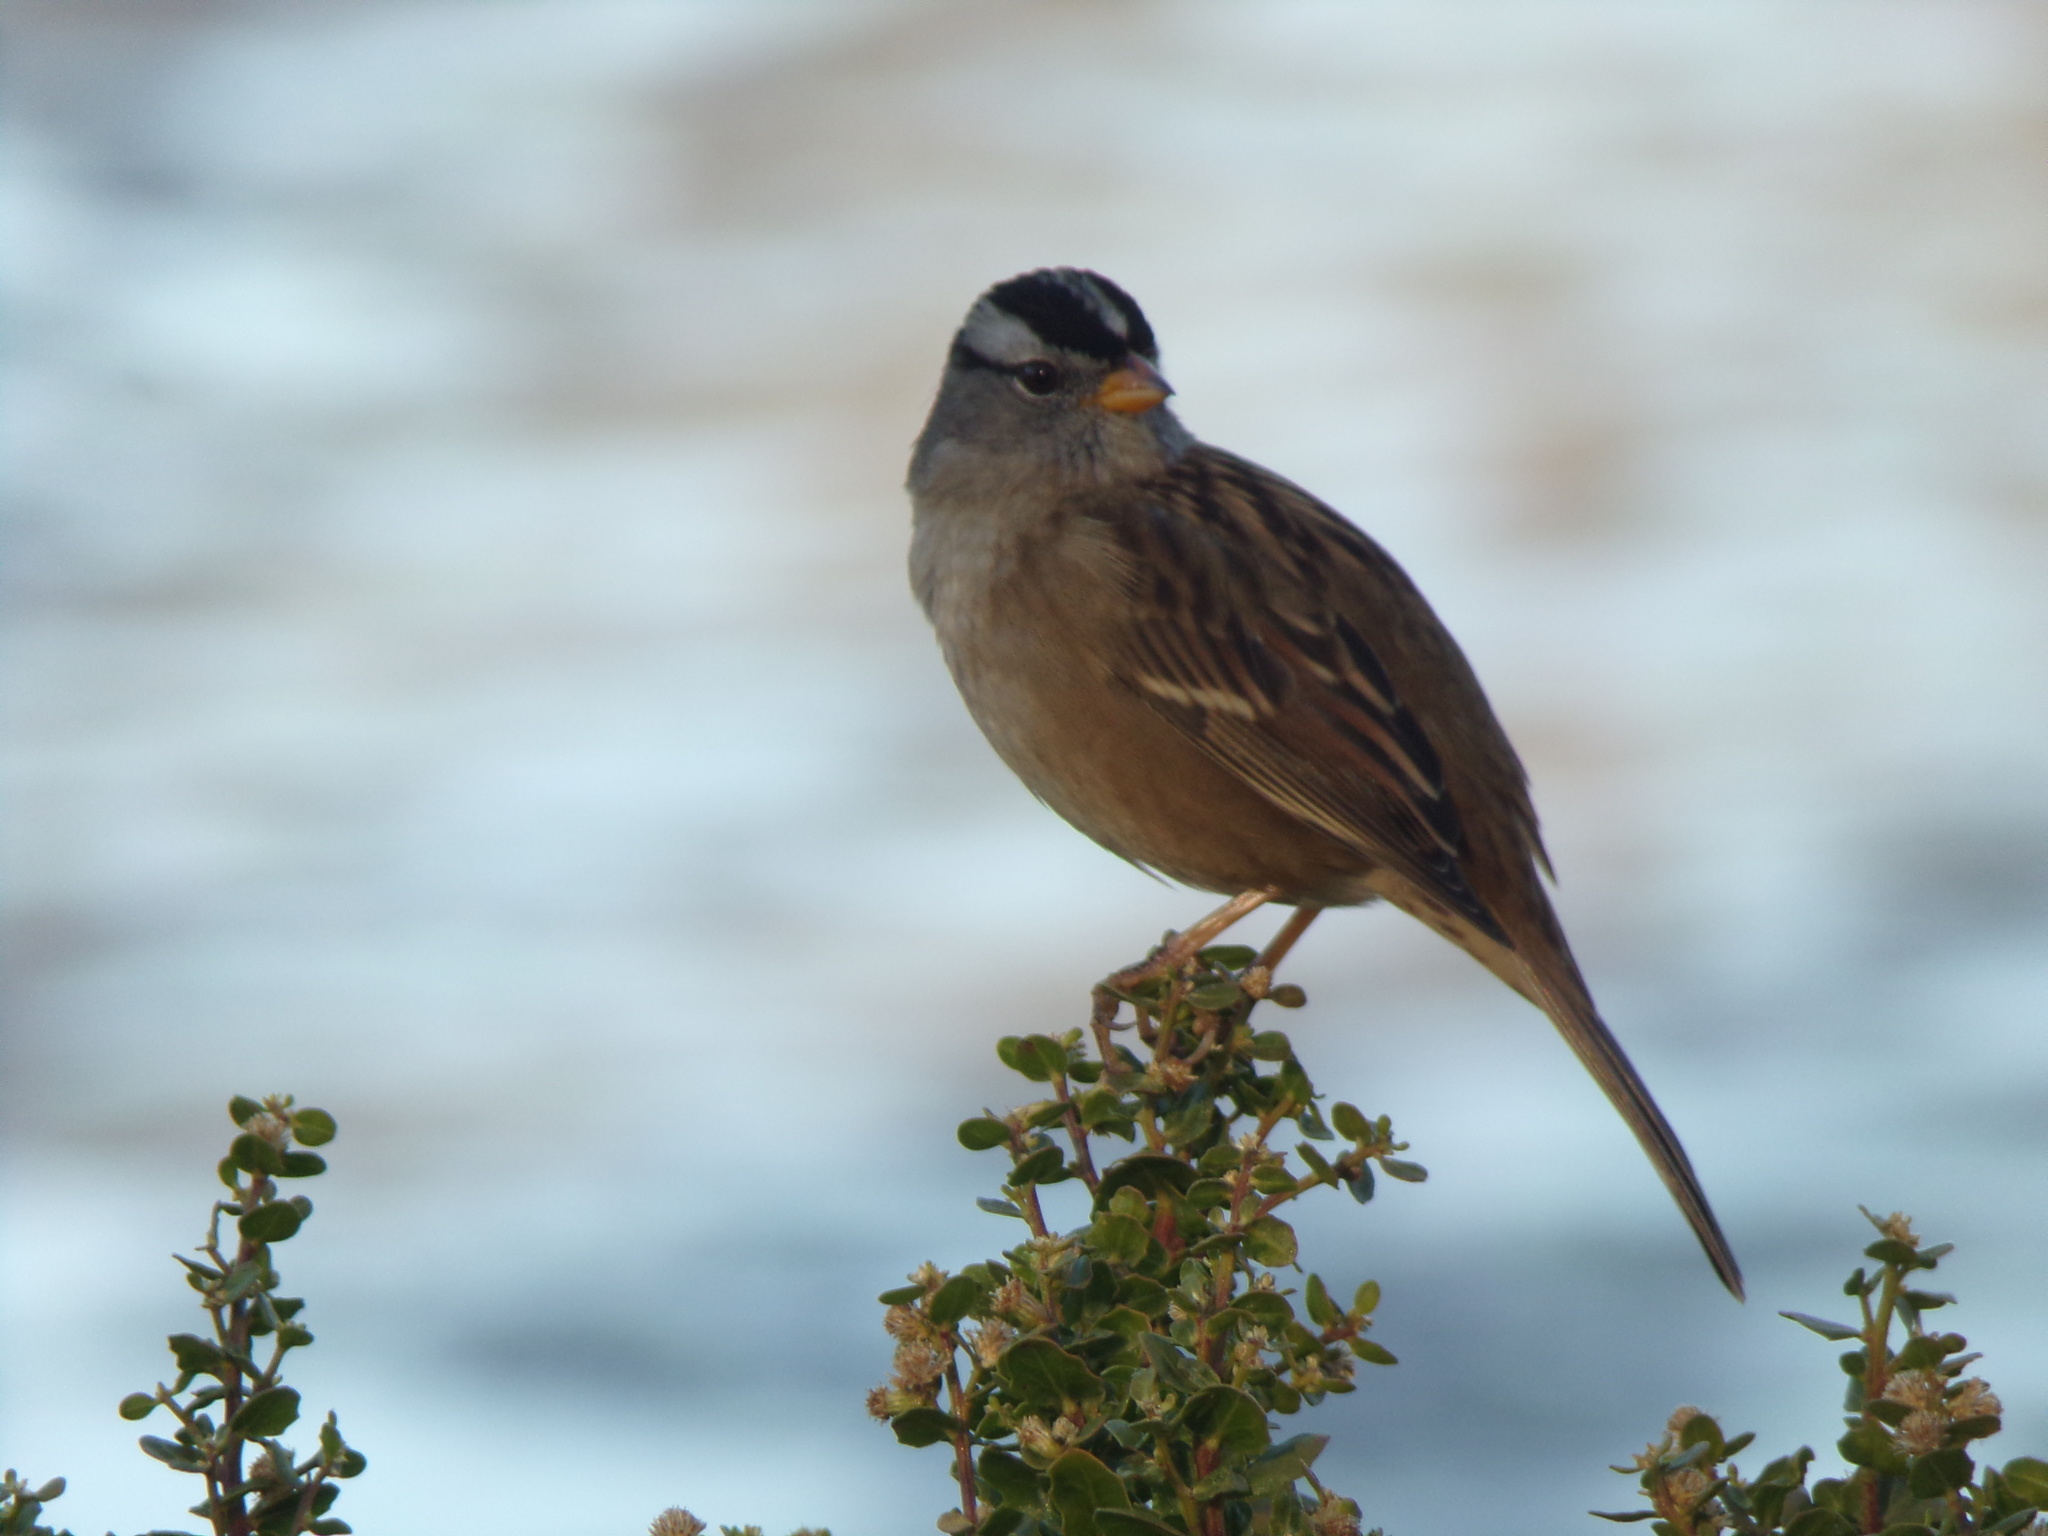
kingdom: Animalia
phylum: Chordata
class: Aves
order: Passeriformes
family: Passerellidae
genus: Zonotrichia
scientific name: Zonotrichia leucophrys
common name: White-crowned sparrow
